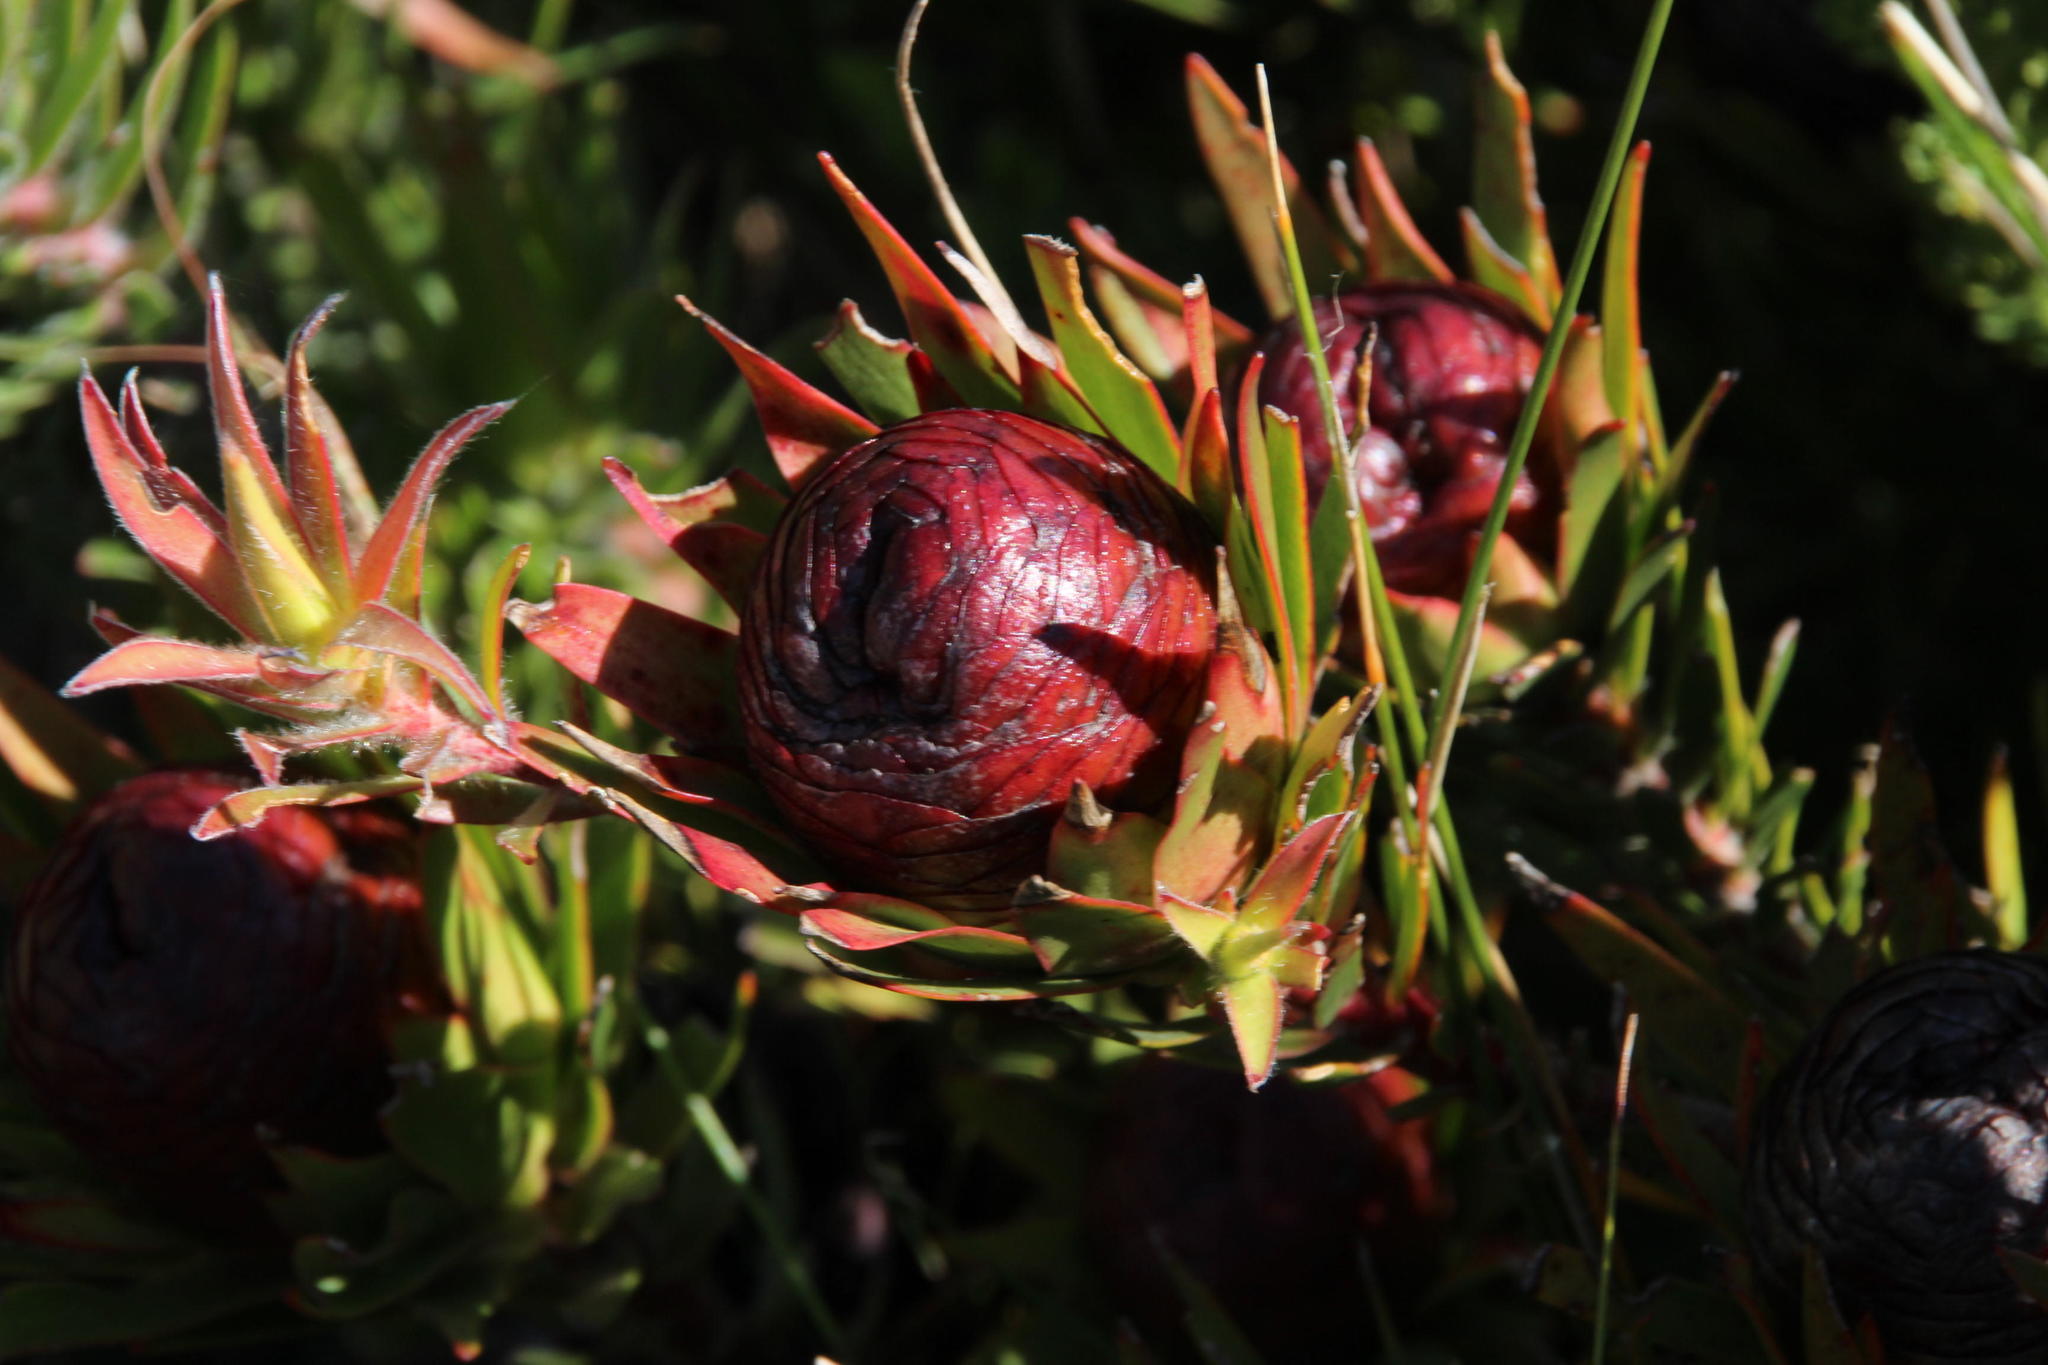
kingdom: Plantae
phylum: Tracheophyta
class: Magnoliopsida
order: Proteales
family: Proteaceae
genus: Leucadendron
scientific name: Leucadendron spissifolium
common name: Spear-leaf conebush
